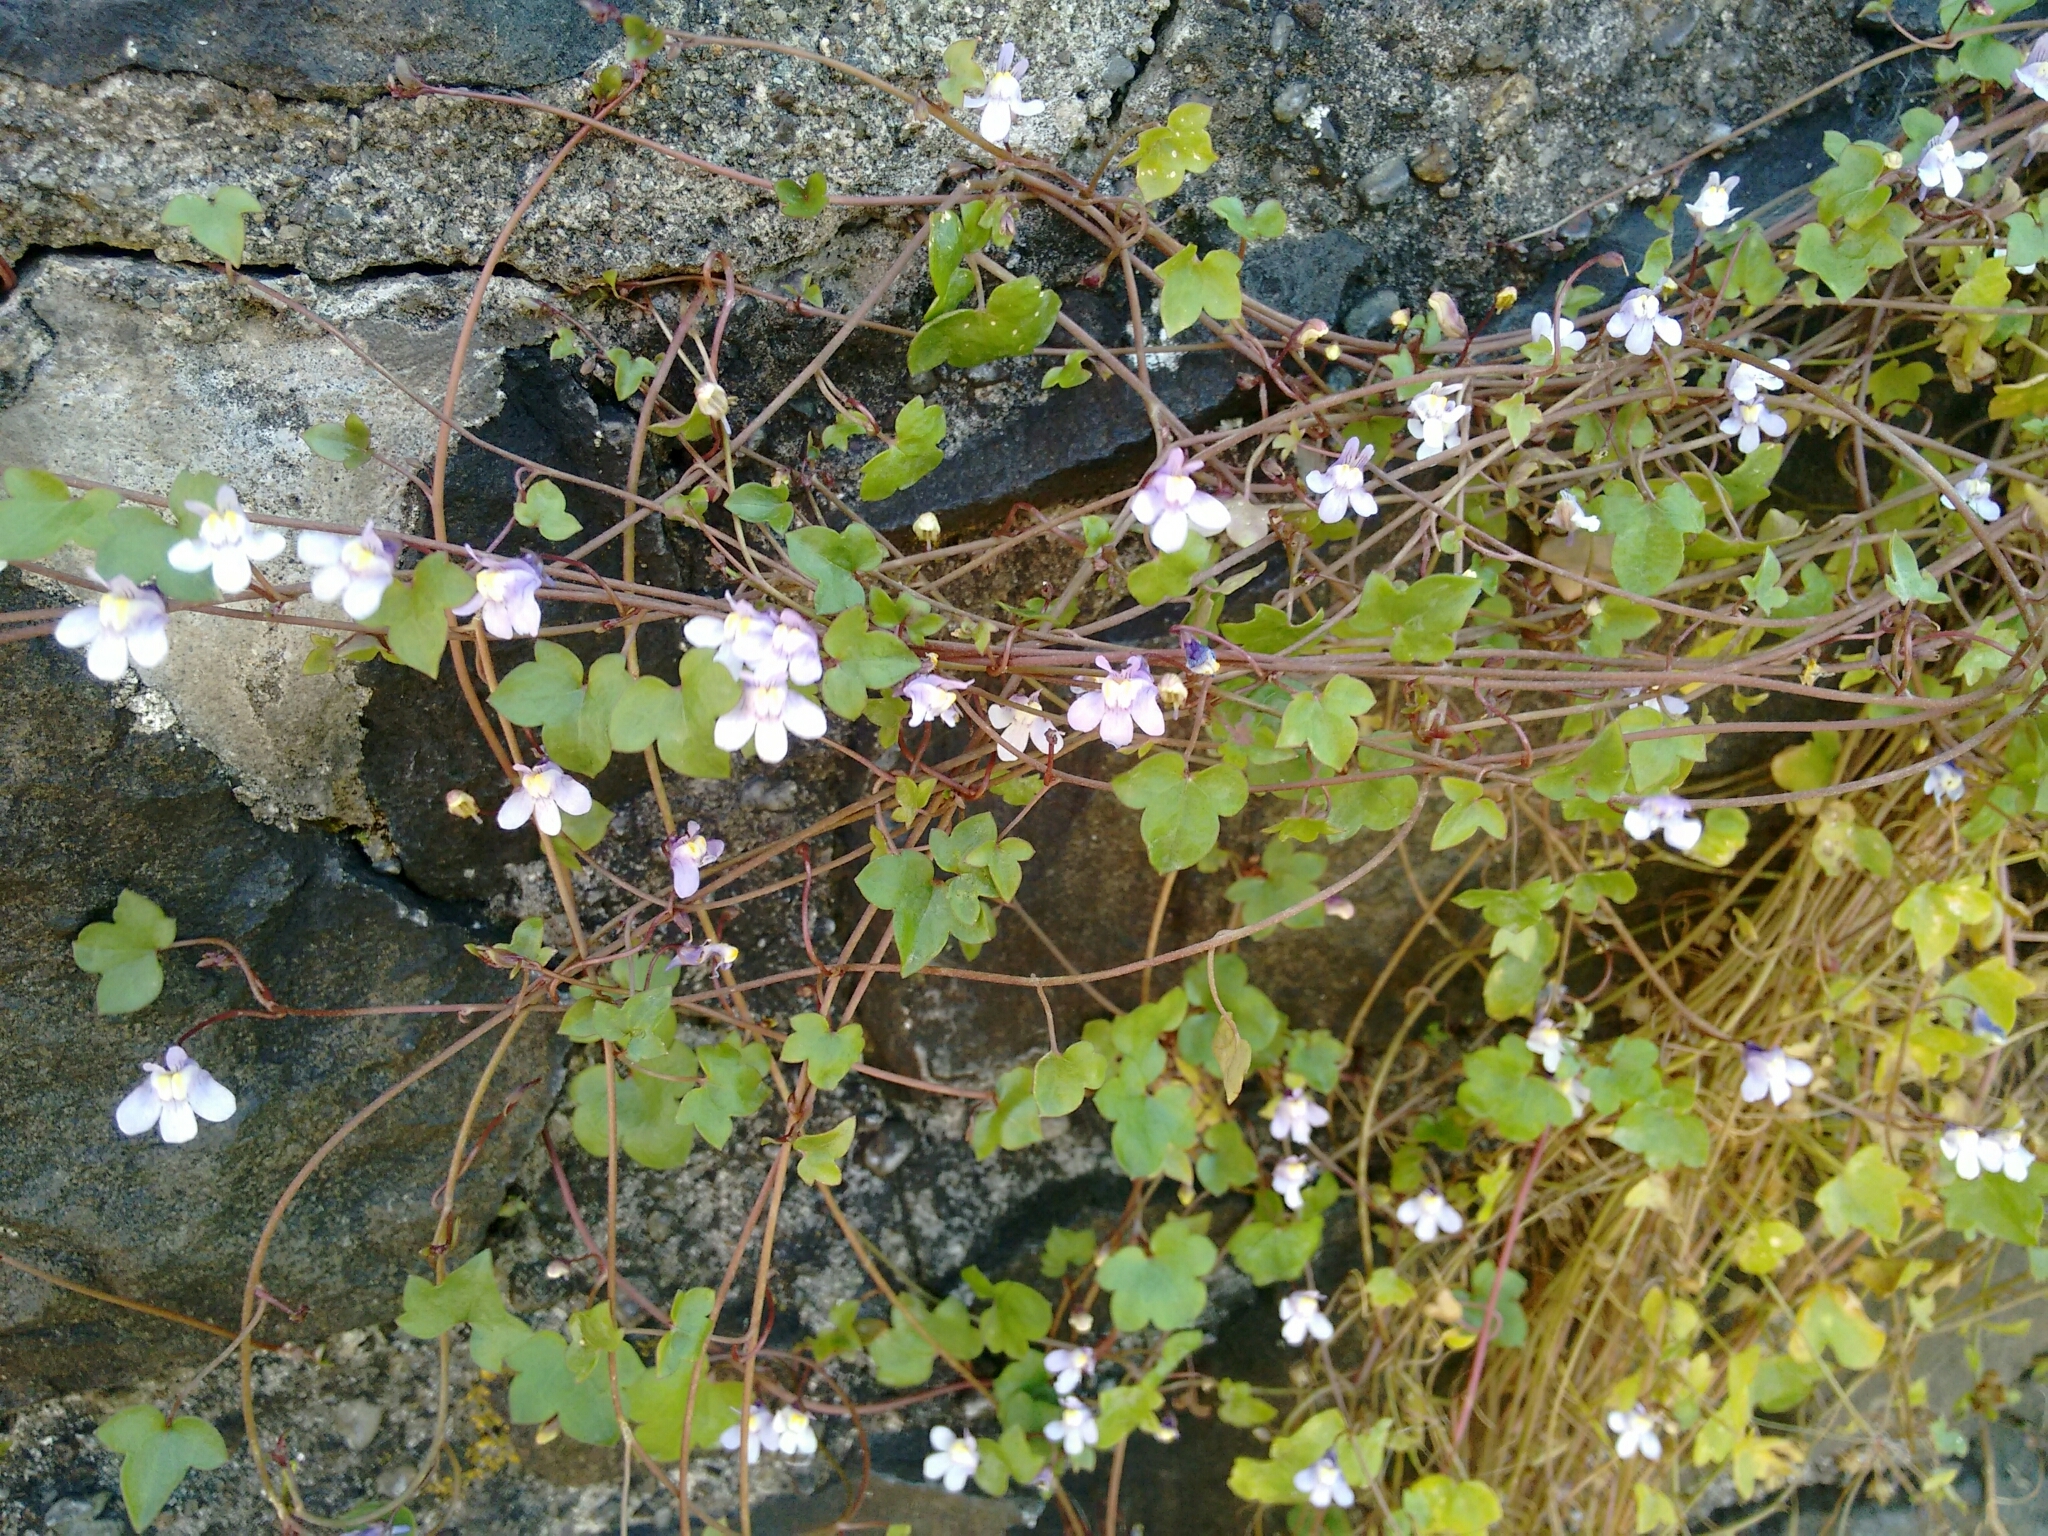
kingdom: Plantae
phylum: Tracheophyta
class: Magnoliopsida
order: Lamiales
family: Plantaginaceae
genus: Cymbalaria
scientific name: Cymbalaria muralis
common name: Ivy-leaved toadflax
